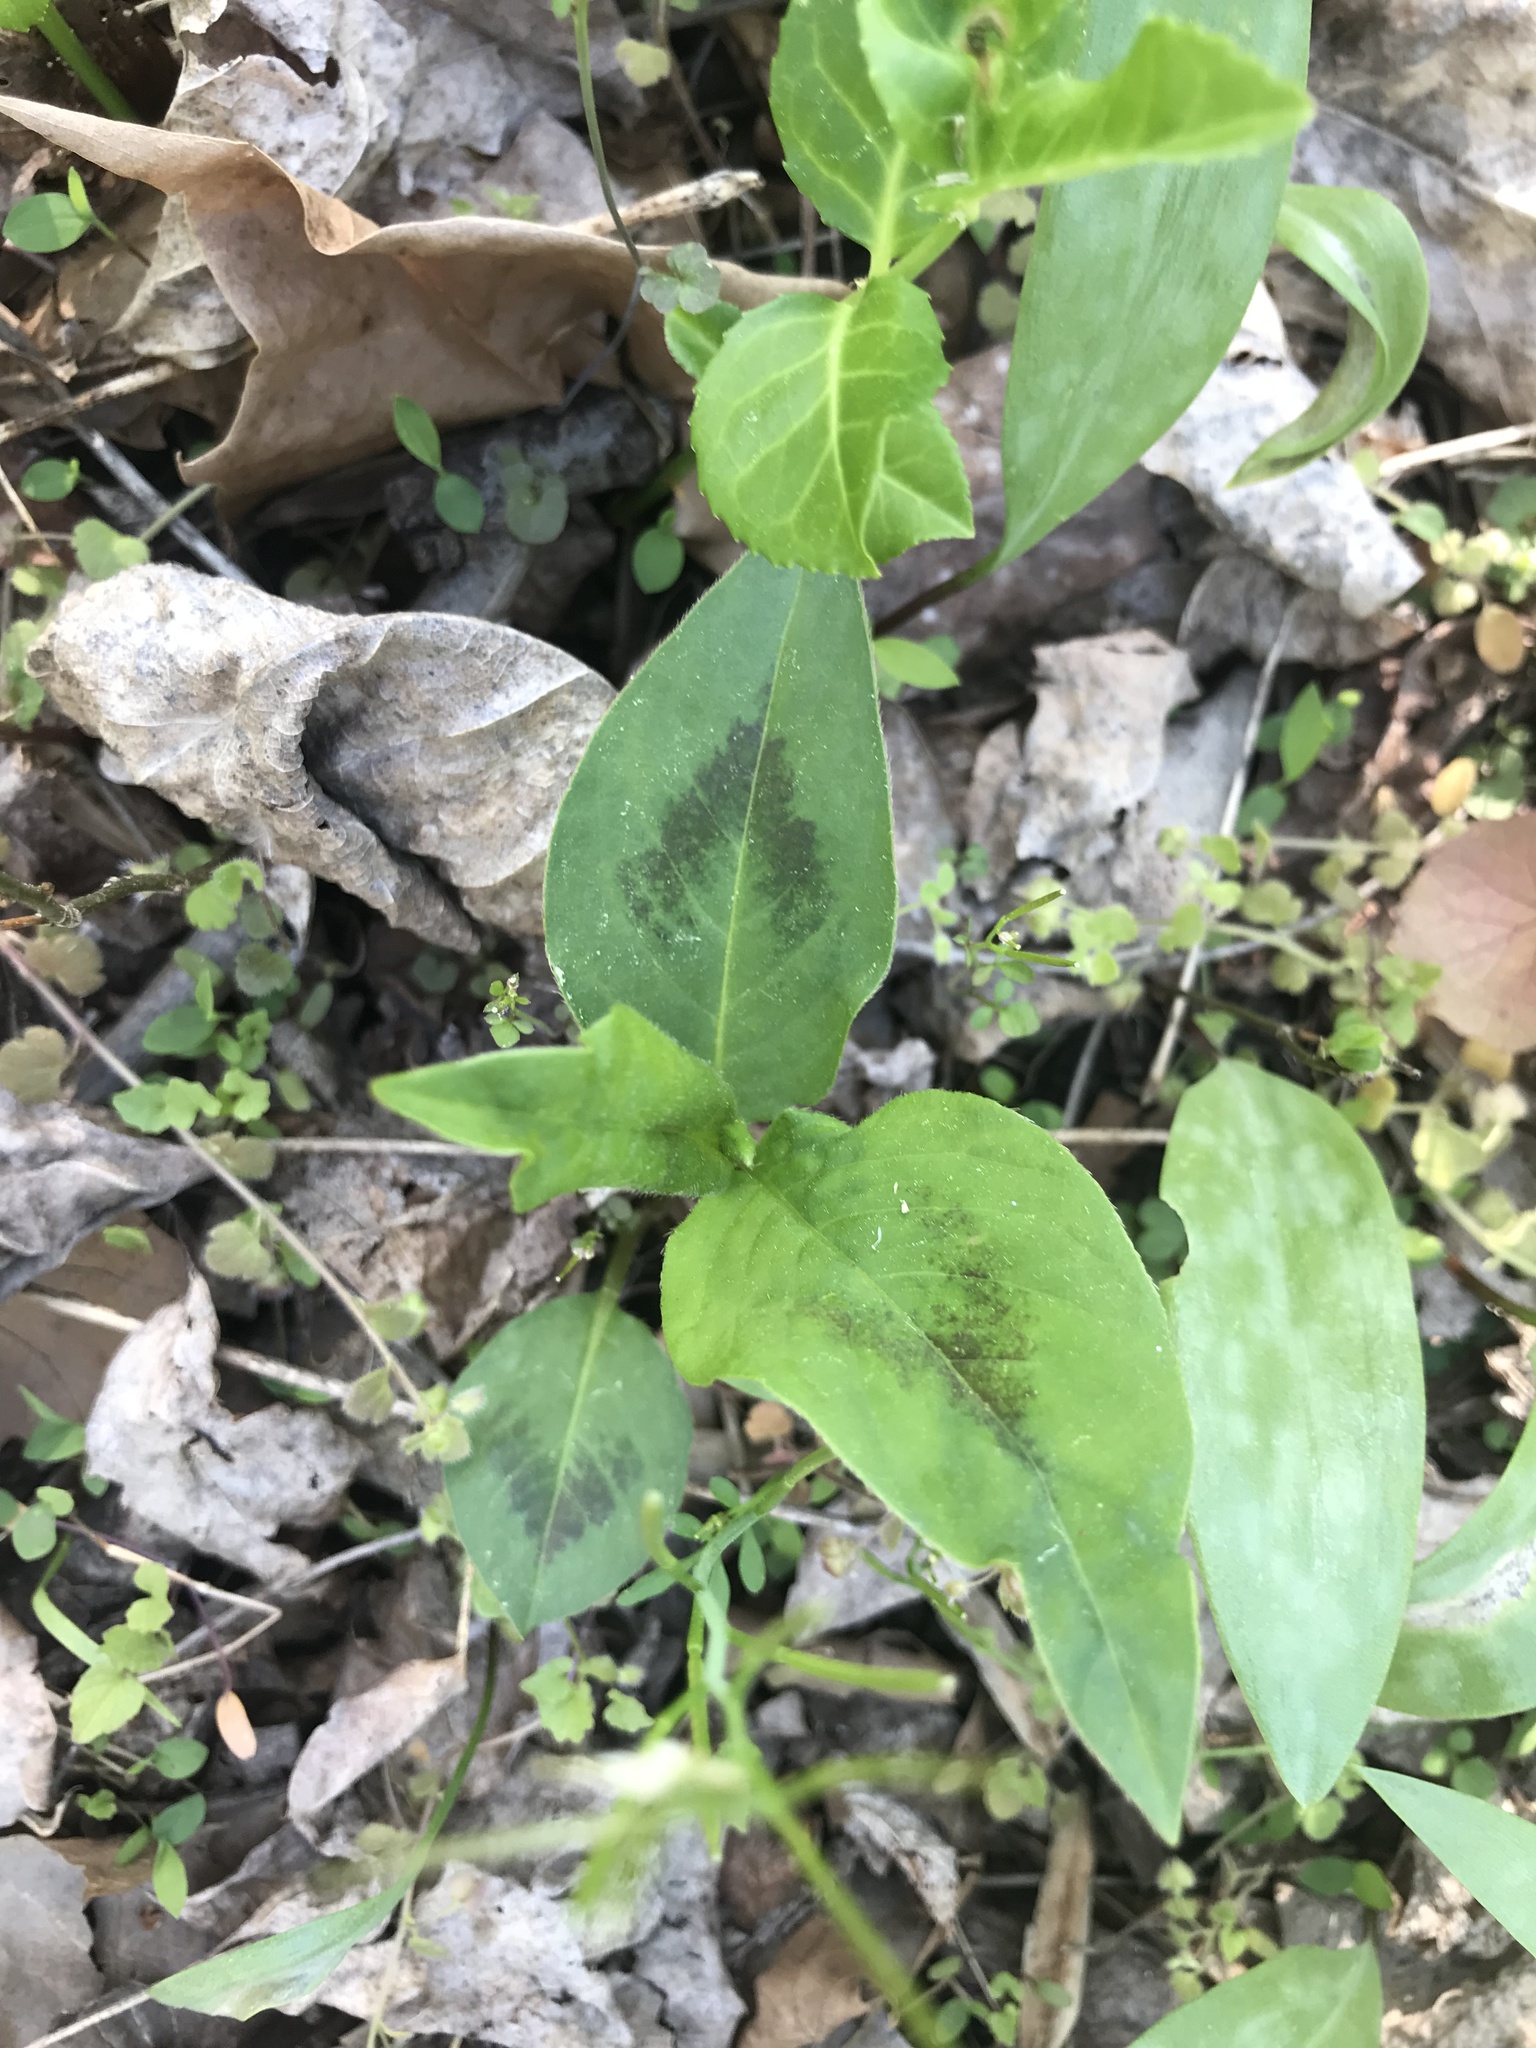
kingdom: Plantae
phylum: Tracheophyta
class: Magnoliopsida
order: Caryophyllales
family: Polygonaceae
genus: Persicaria
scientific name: Persicaria virginiana
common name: Jumpseed
